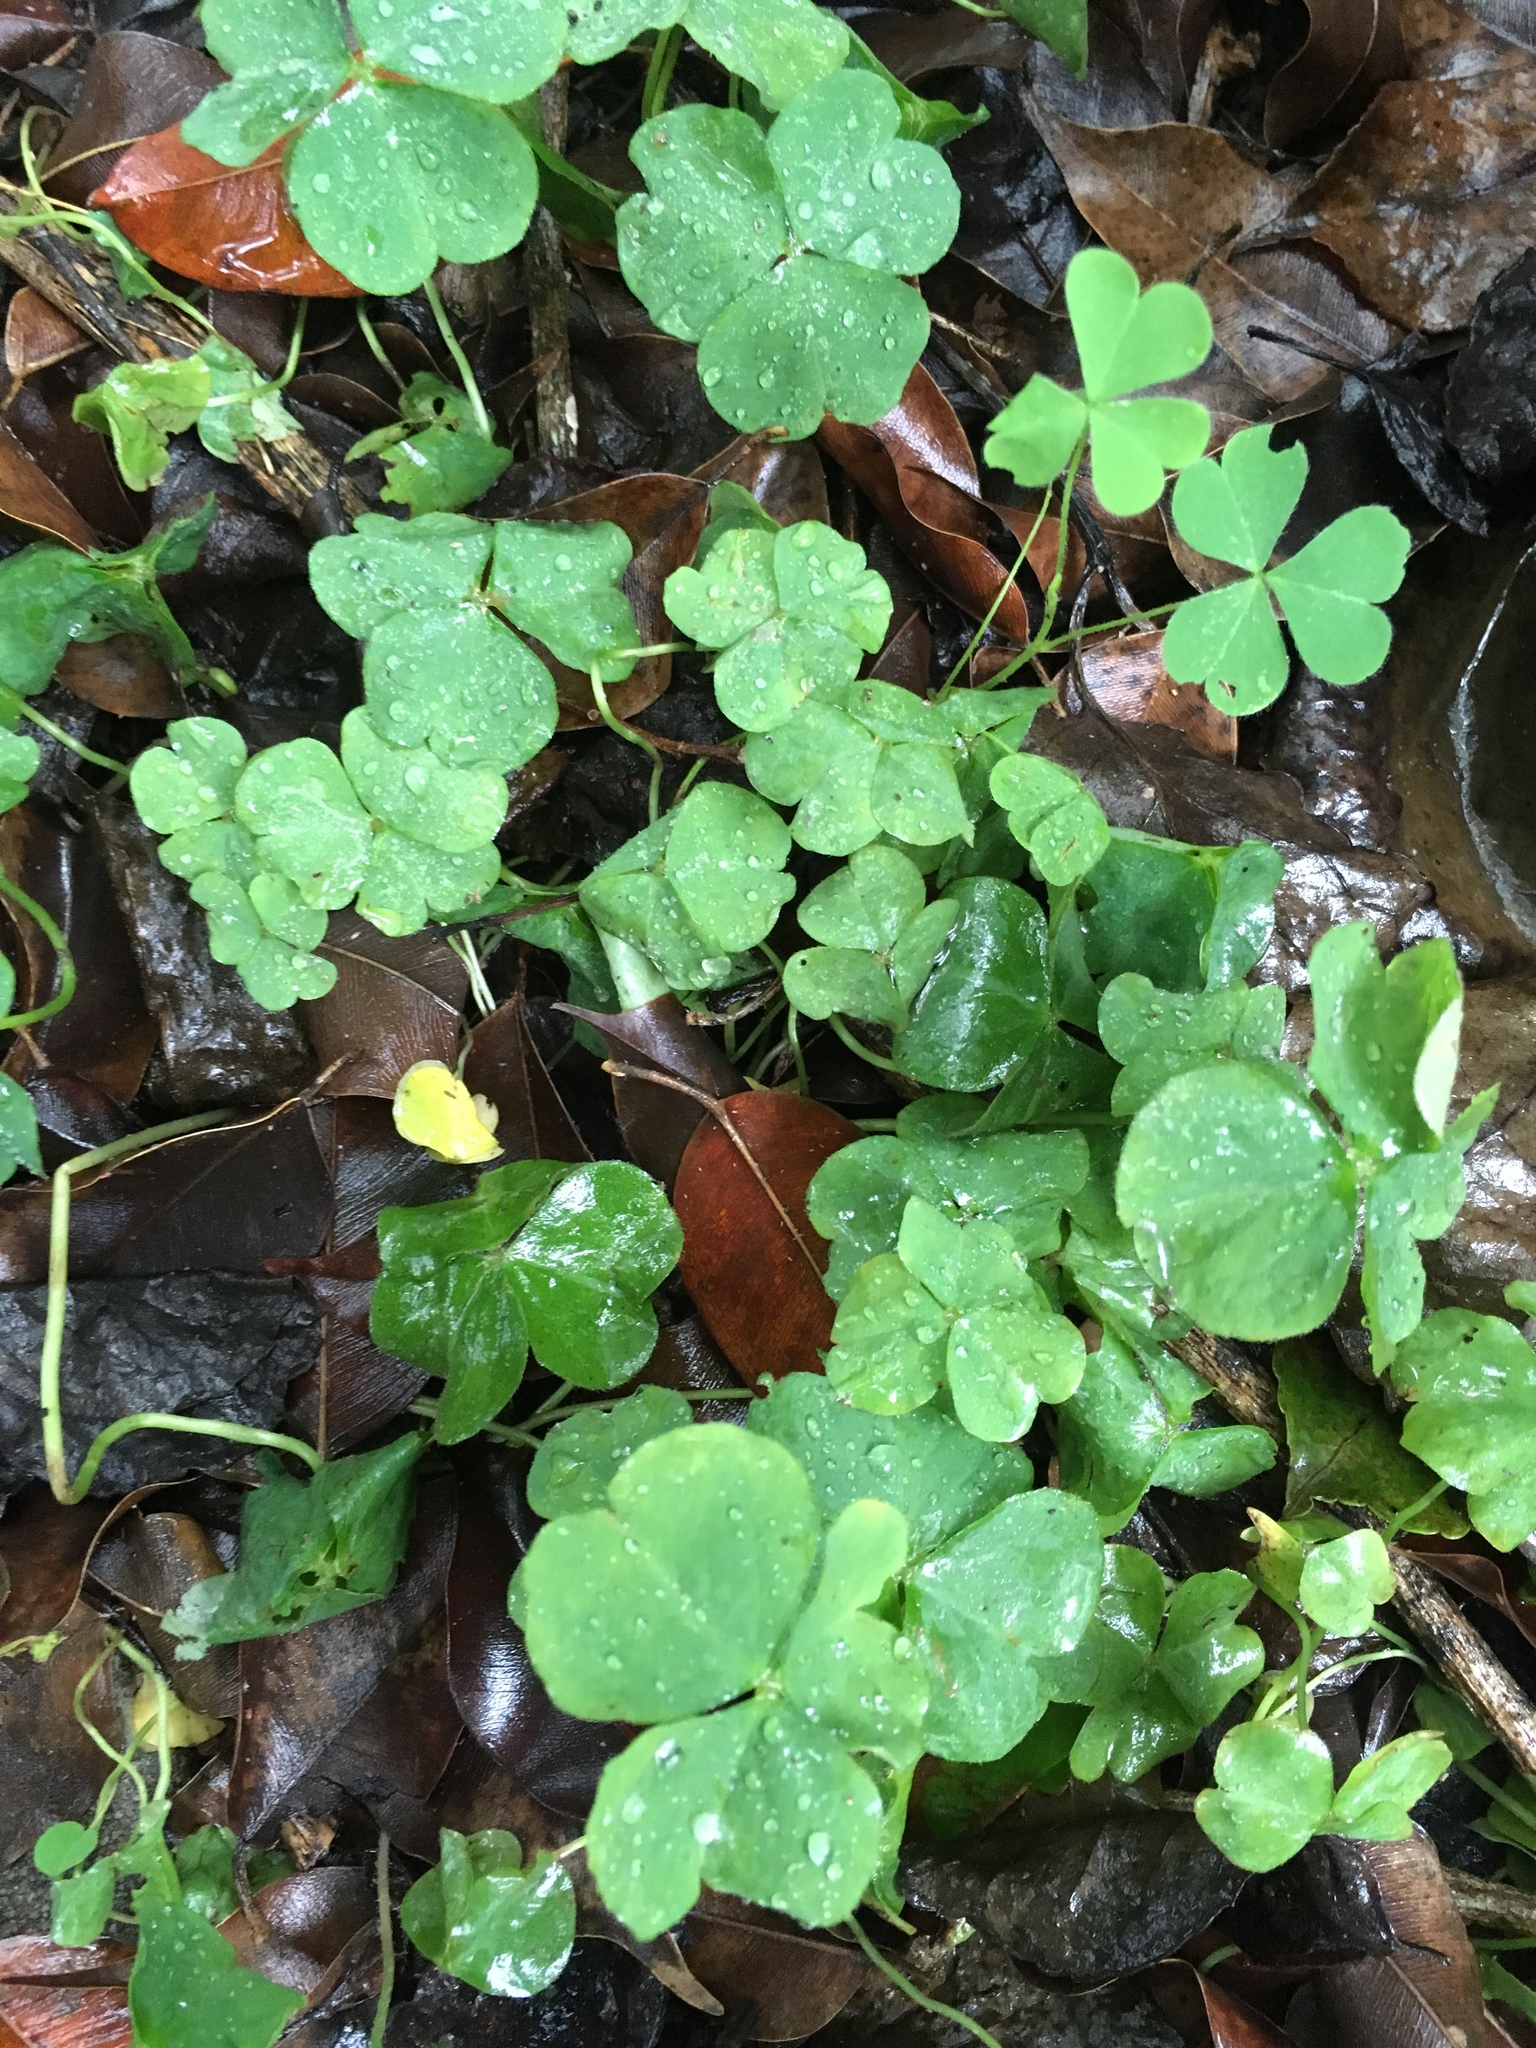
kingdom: Plantae
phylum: Tracheophyta
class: Magnoliopsida
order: Oxalidales
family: Oxalidaceae
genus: Oxalis
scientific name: Oxalis debilis
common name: Large-flowered pink-sorrel
